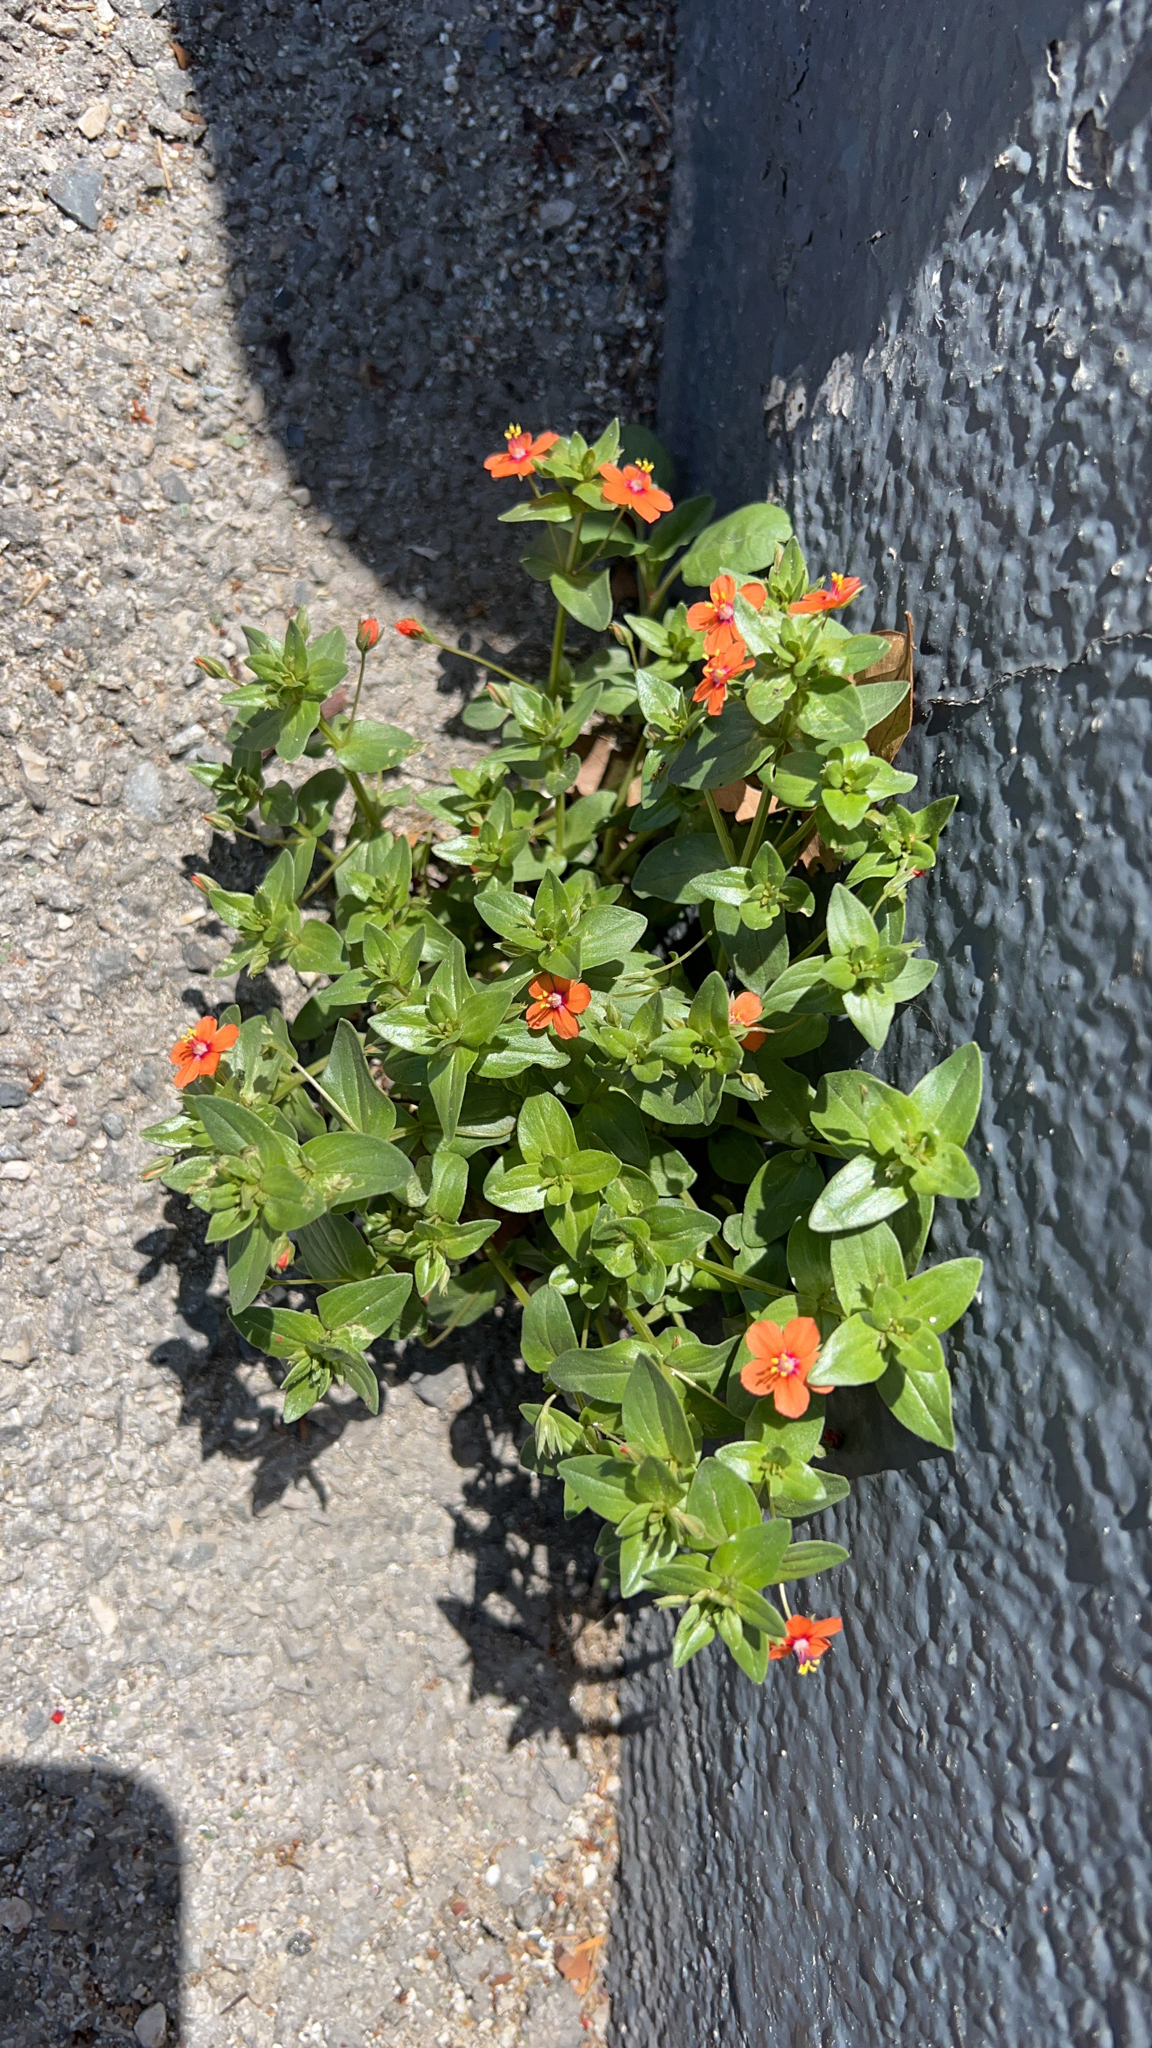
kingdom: Plantae
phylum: Tracheophyta
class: Magnoliopsida
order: Ericales
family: Primulaceae
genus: Lysimachia
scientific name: Lysimachia arvensis
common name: Scarlet pimpernel
